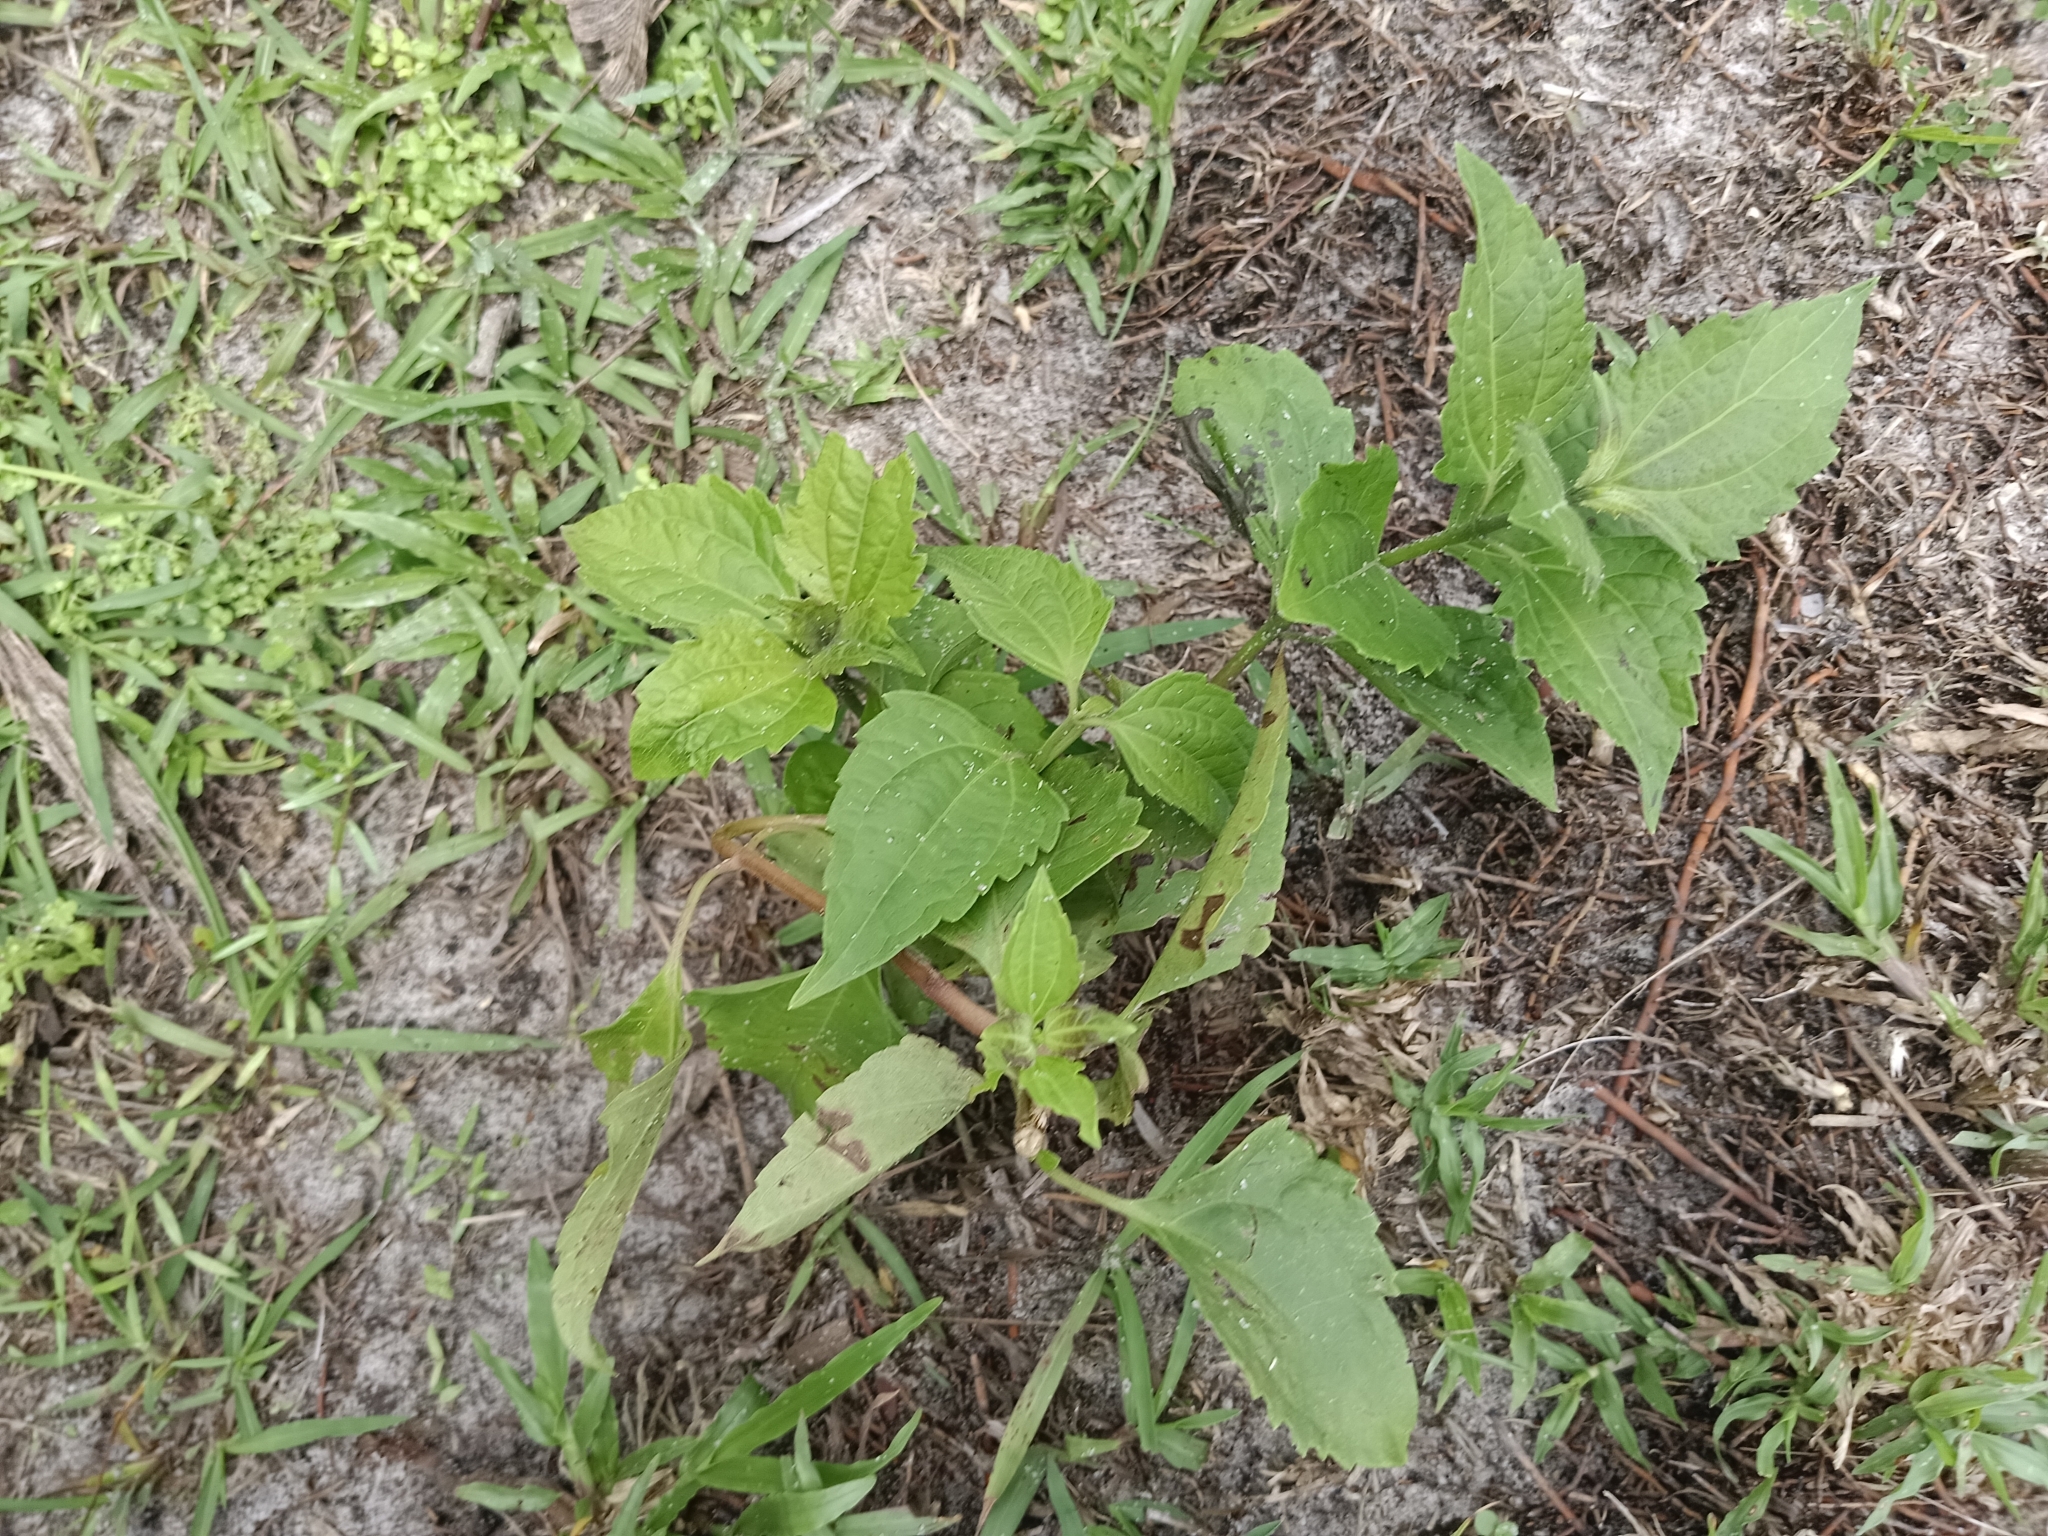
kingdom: Plantae
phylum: Tracheophyta
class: Magnoliopsida
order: Asterales
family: Asteraceae
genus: Chromolaena
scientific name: Chromolaena odorata
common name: Siamweed
